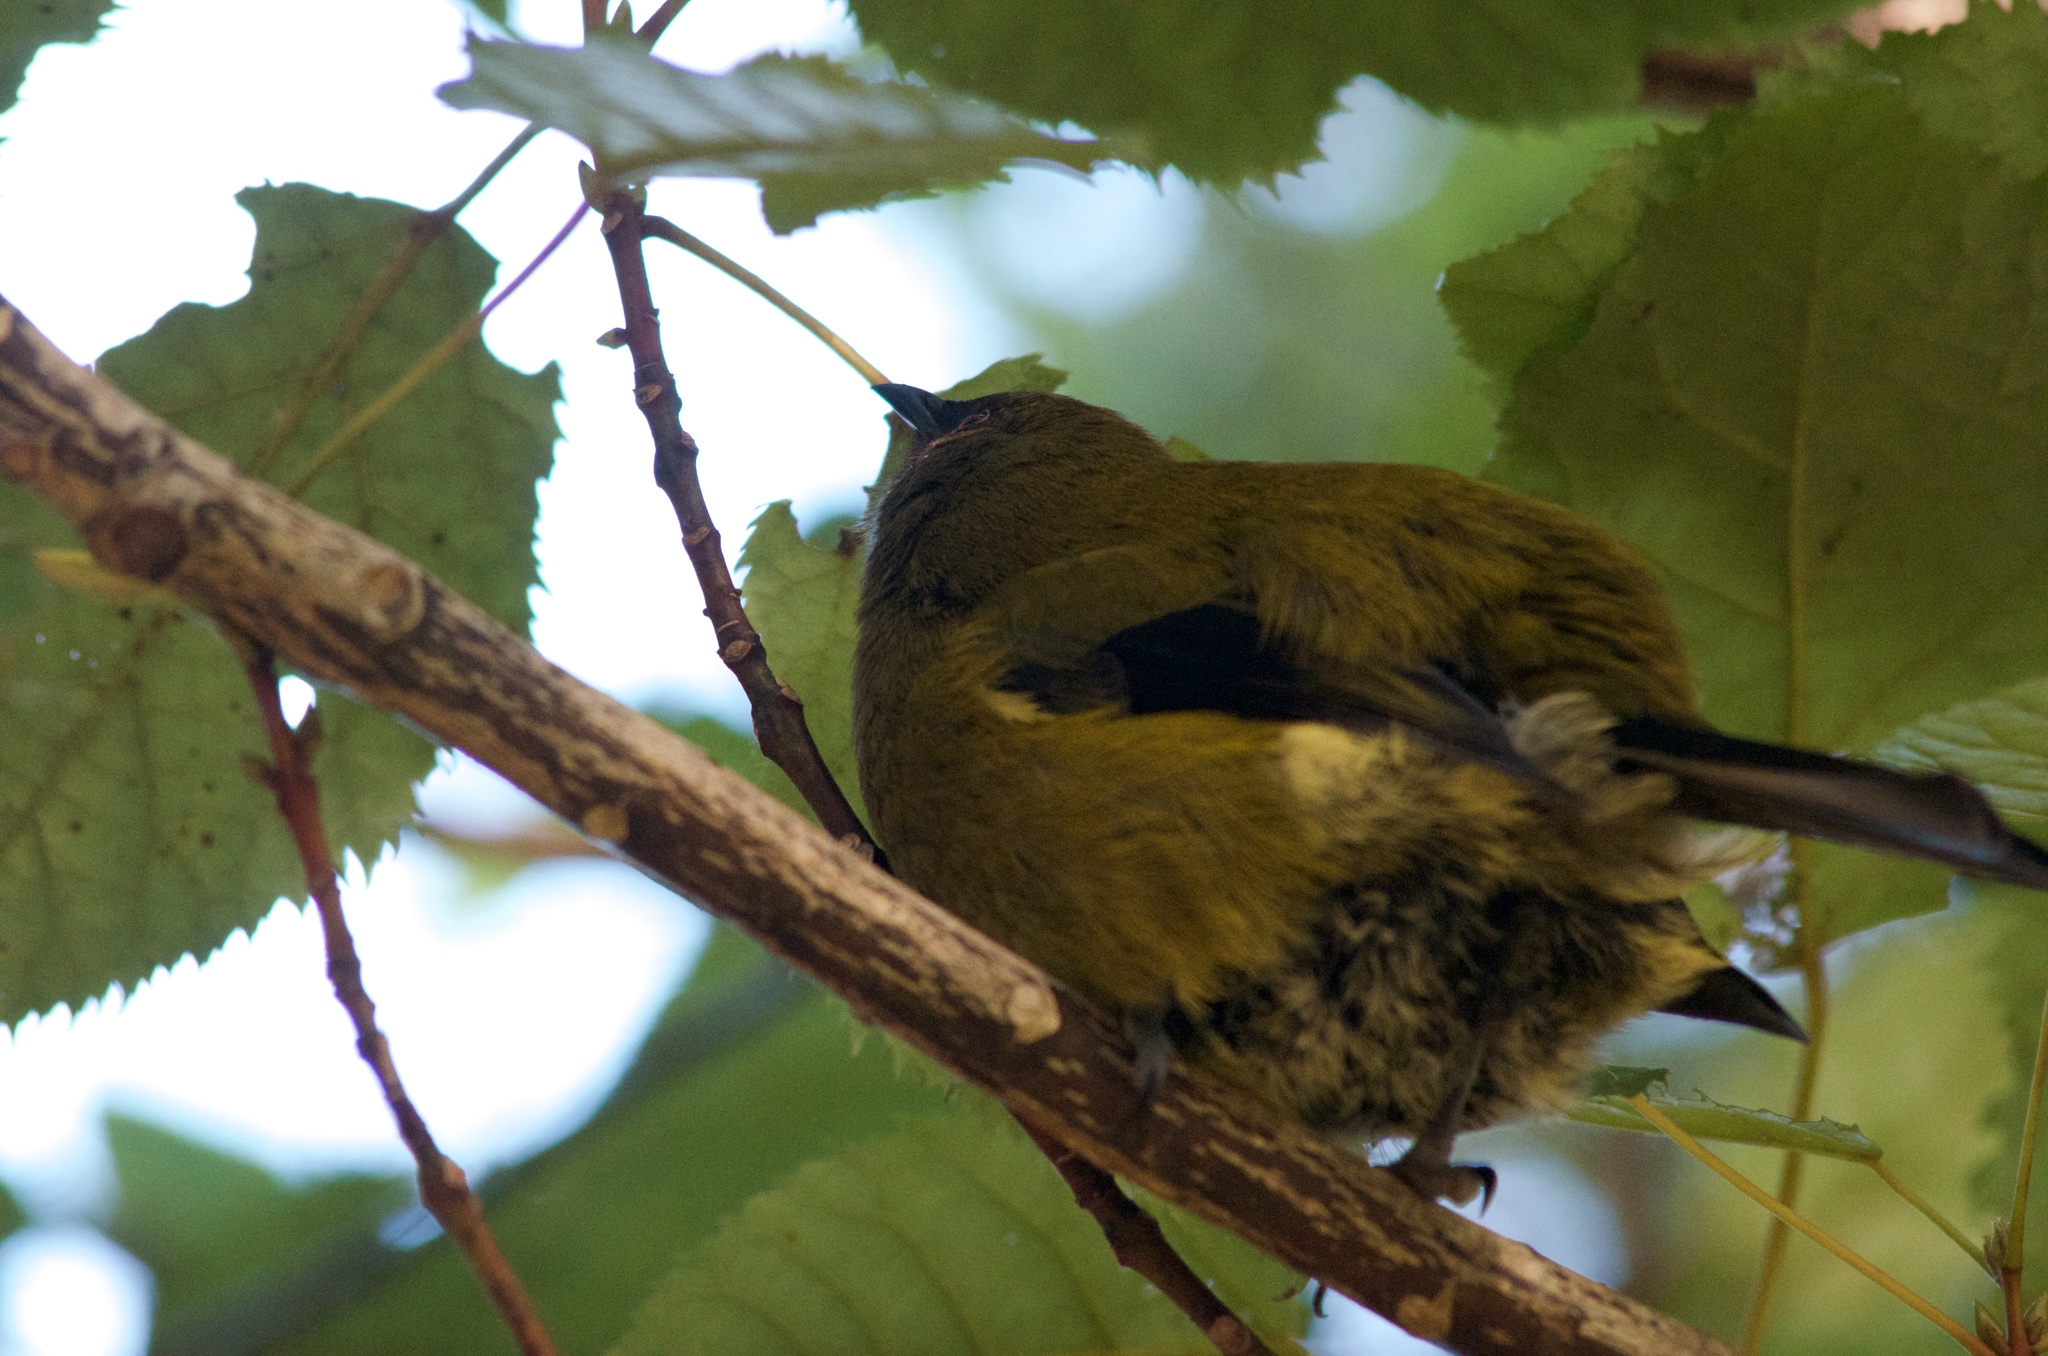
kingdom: Animalia
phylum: Chordata
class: Aves
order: Passeriformes
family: Meliphagidae
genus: Anthornis
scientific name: Anthornis melanura
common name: New zealand bellbird
